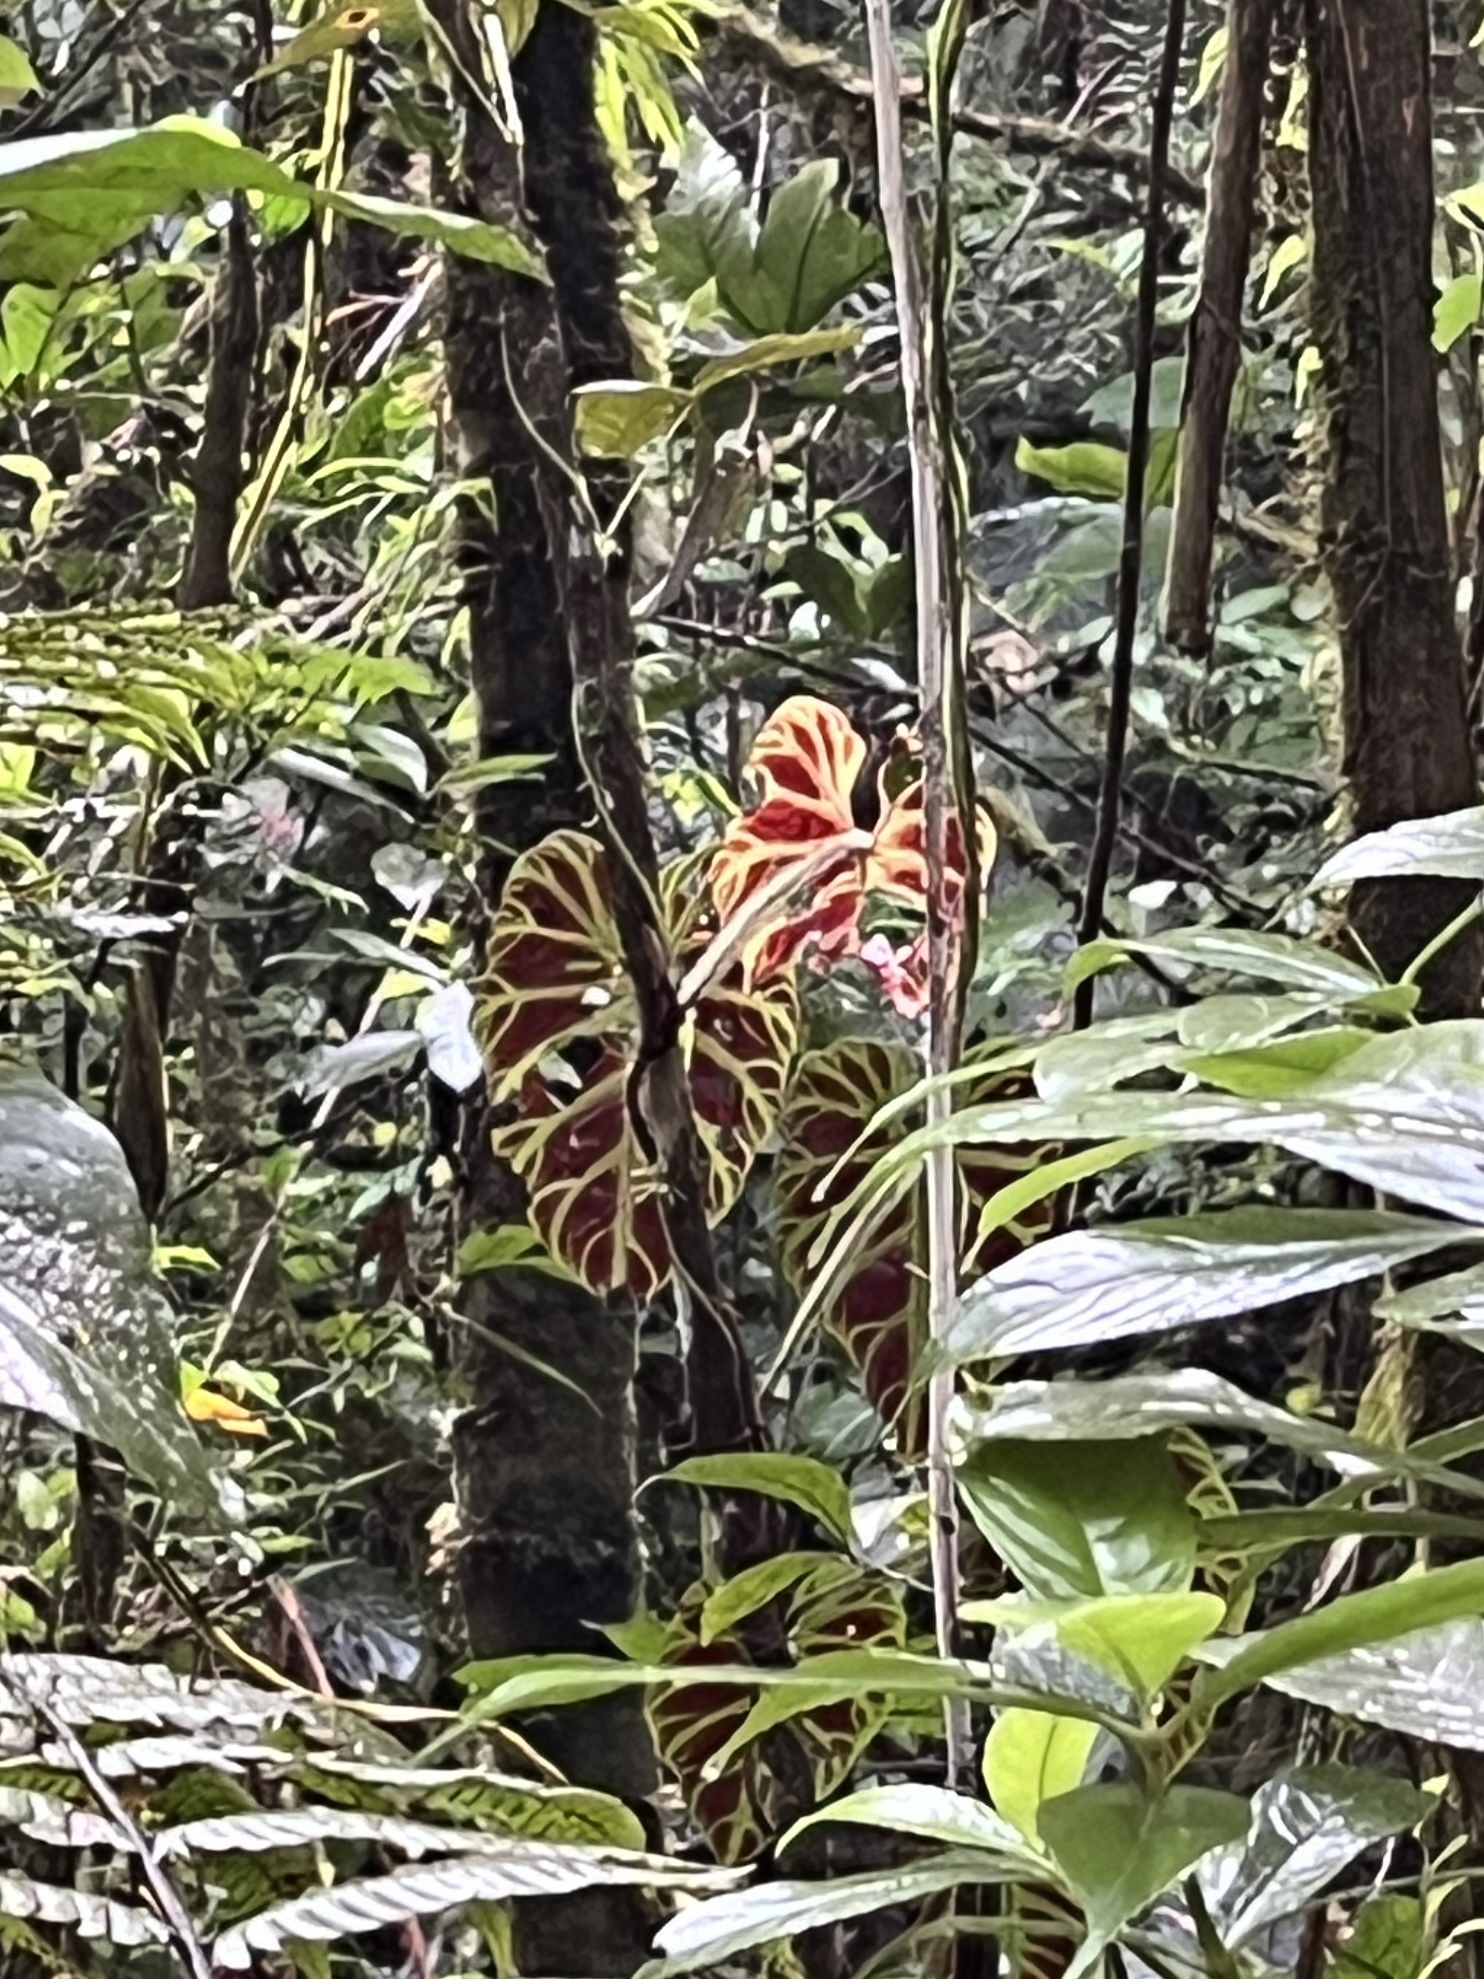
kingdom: Plantae
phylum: Tracheophyta
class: Liliopsida
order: Alismatales
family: Araceae
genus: Philodendron
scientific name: Philodendron verrucosum
